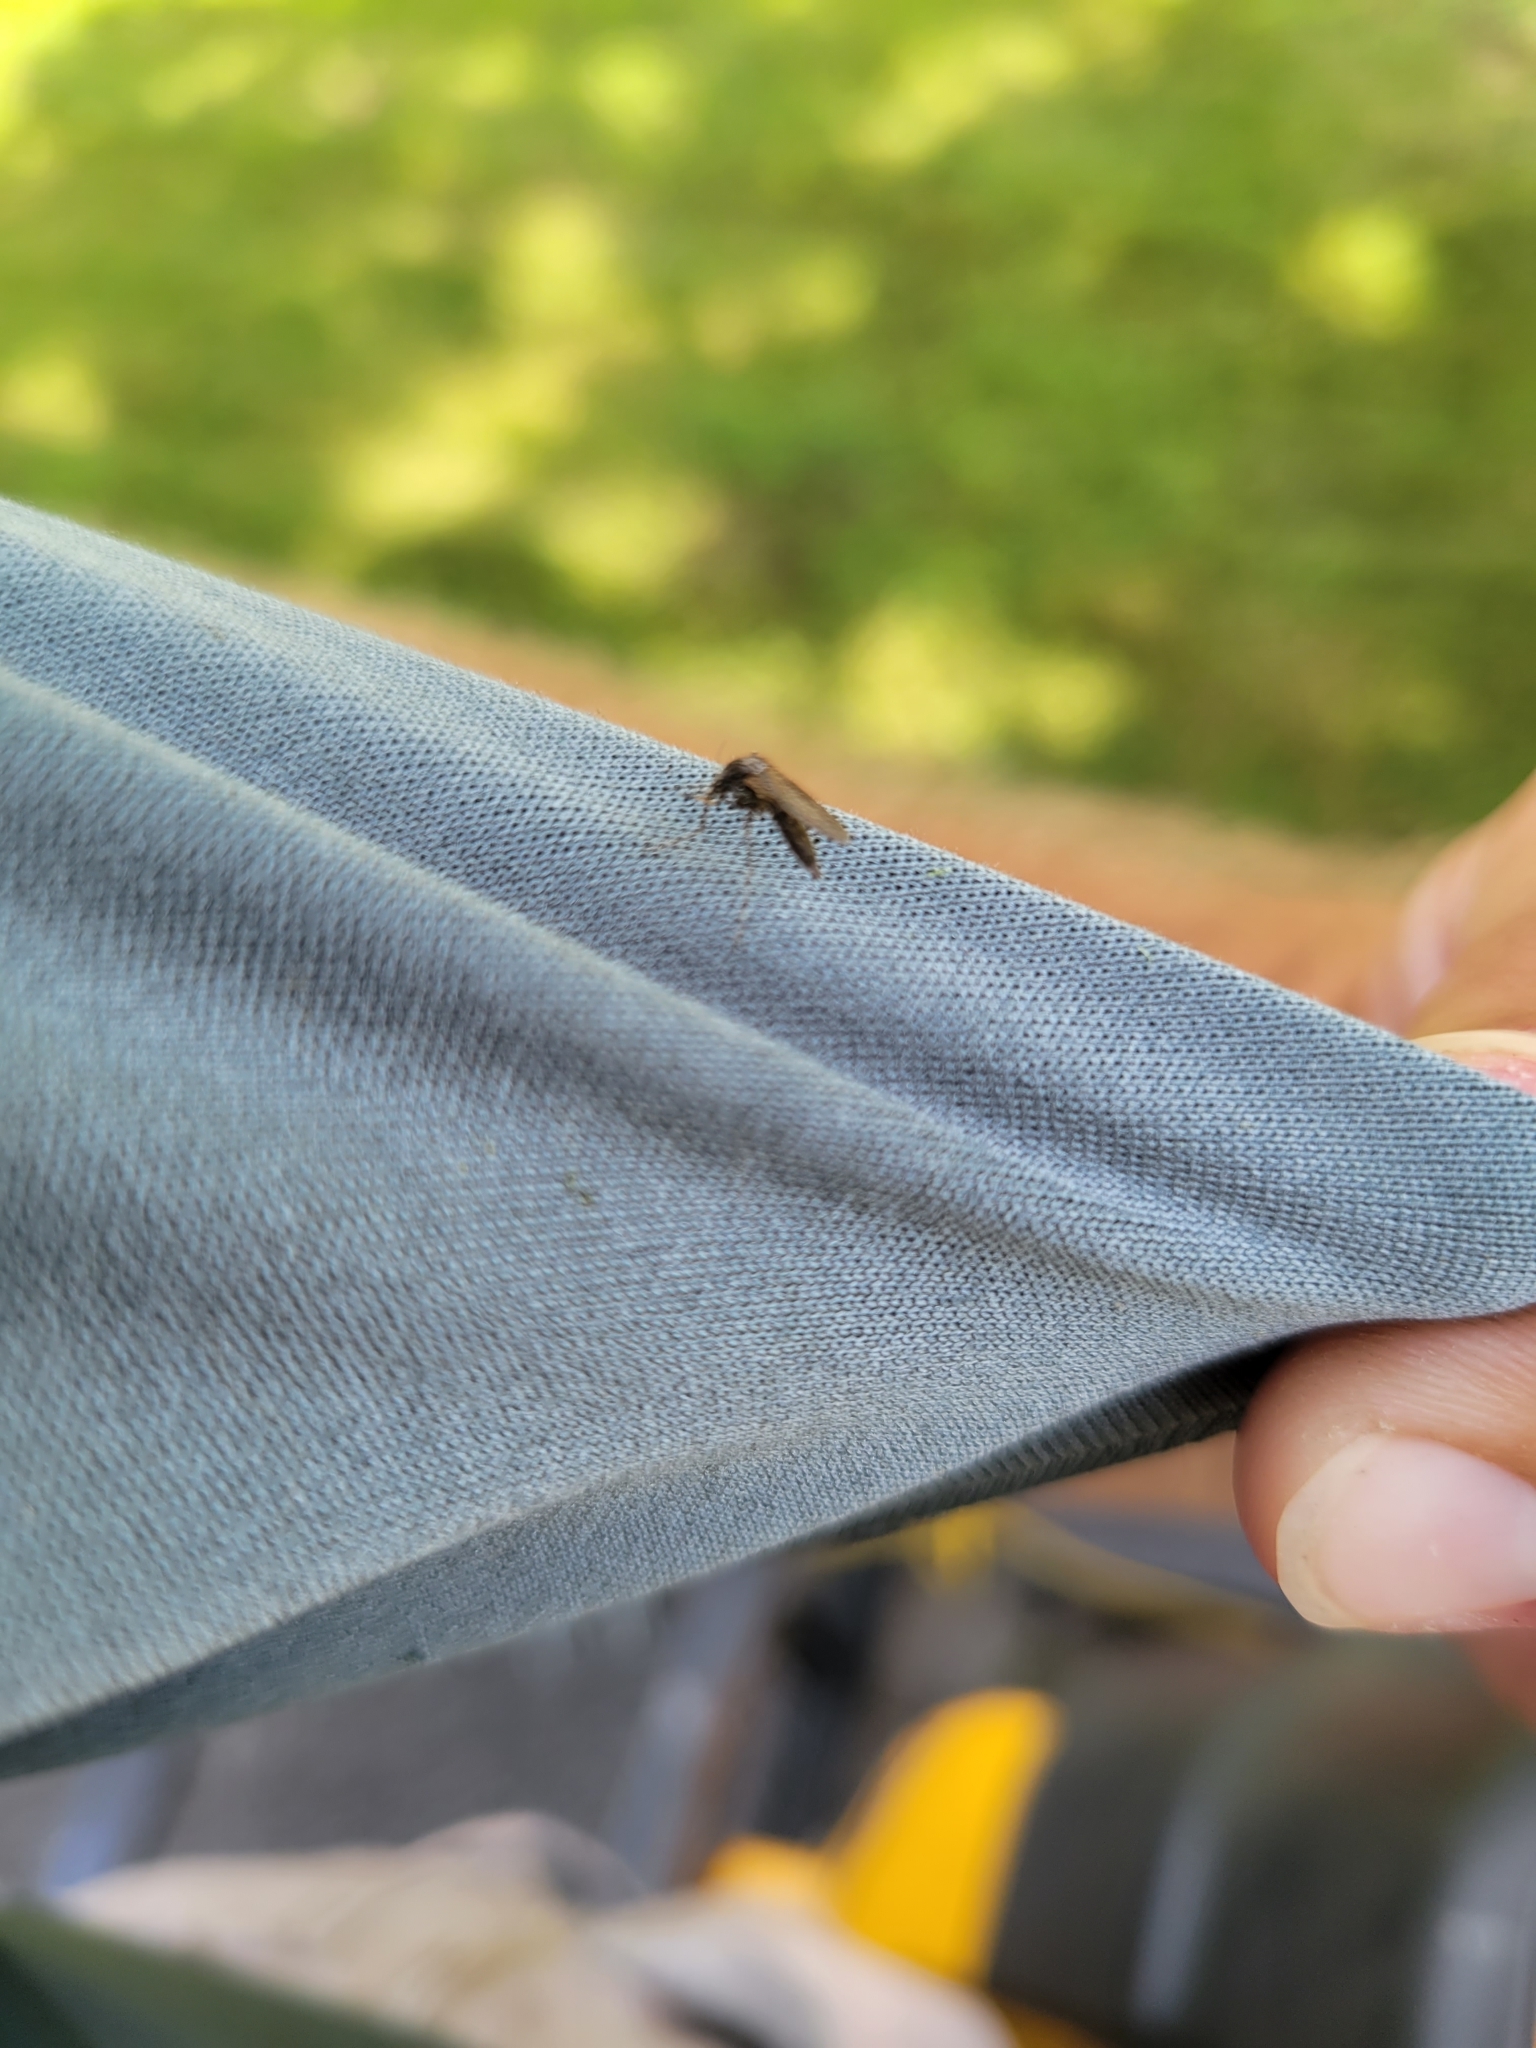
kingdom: Animalia
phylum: Arthropoda
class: Insecta
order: Diptera
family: Culicidae
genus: Psorophora
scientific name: Psorophora columbiae
